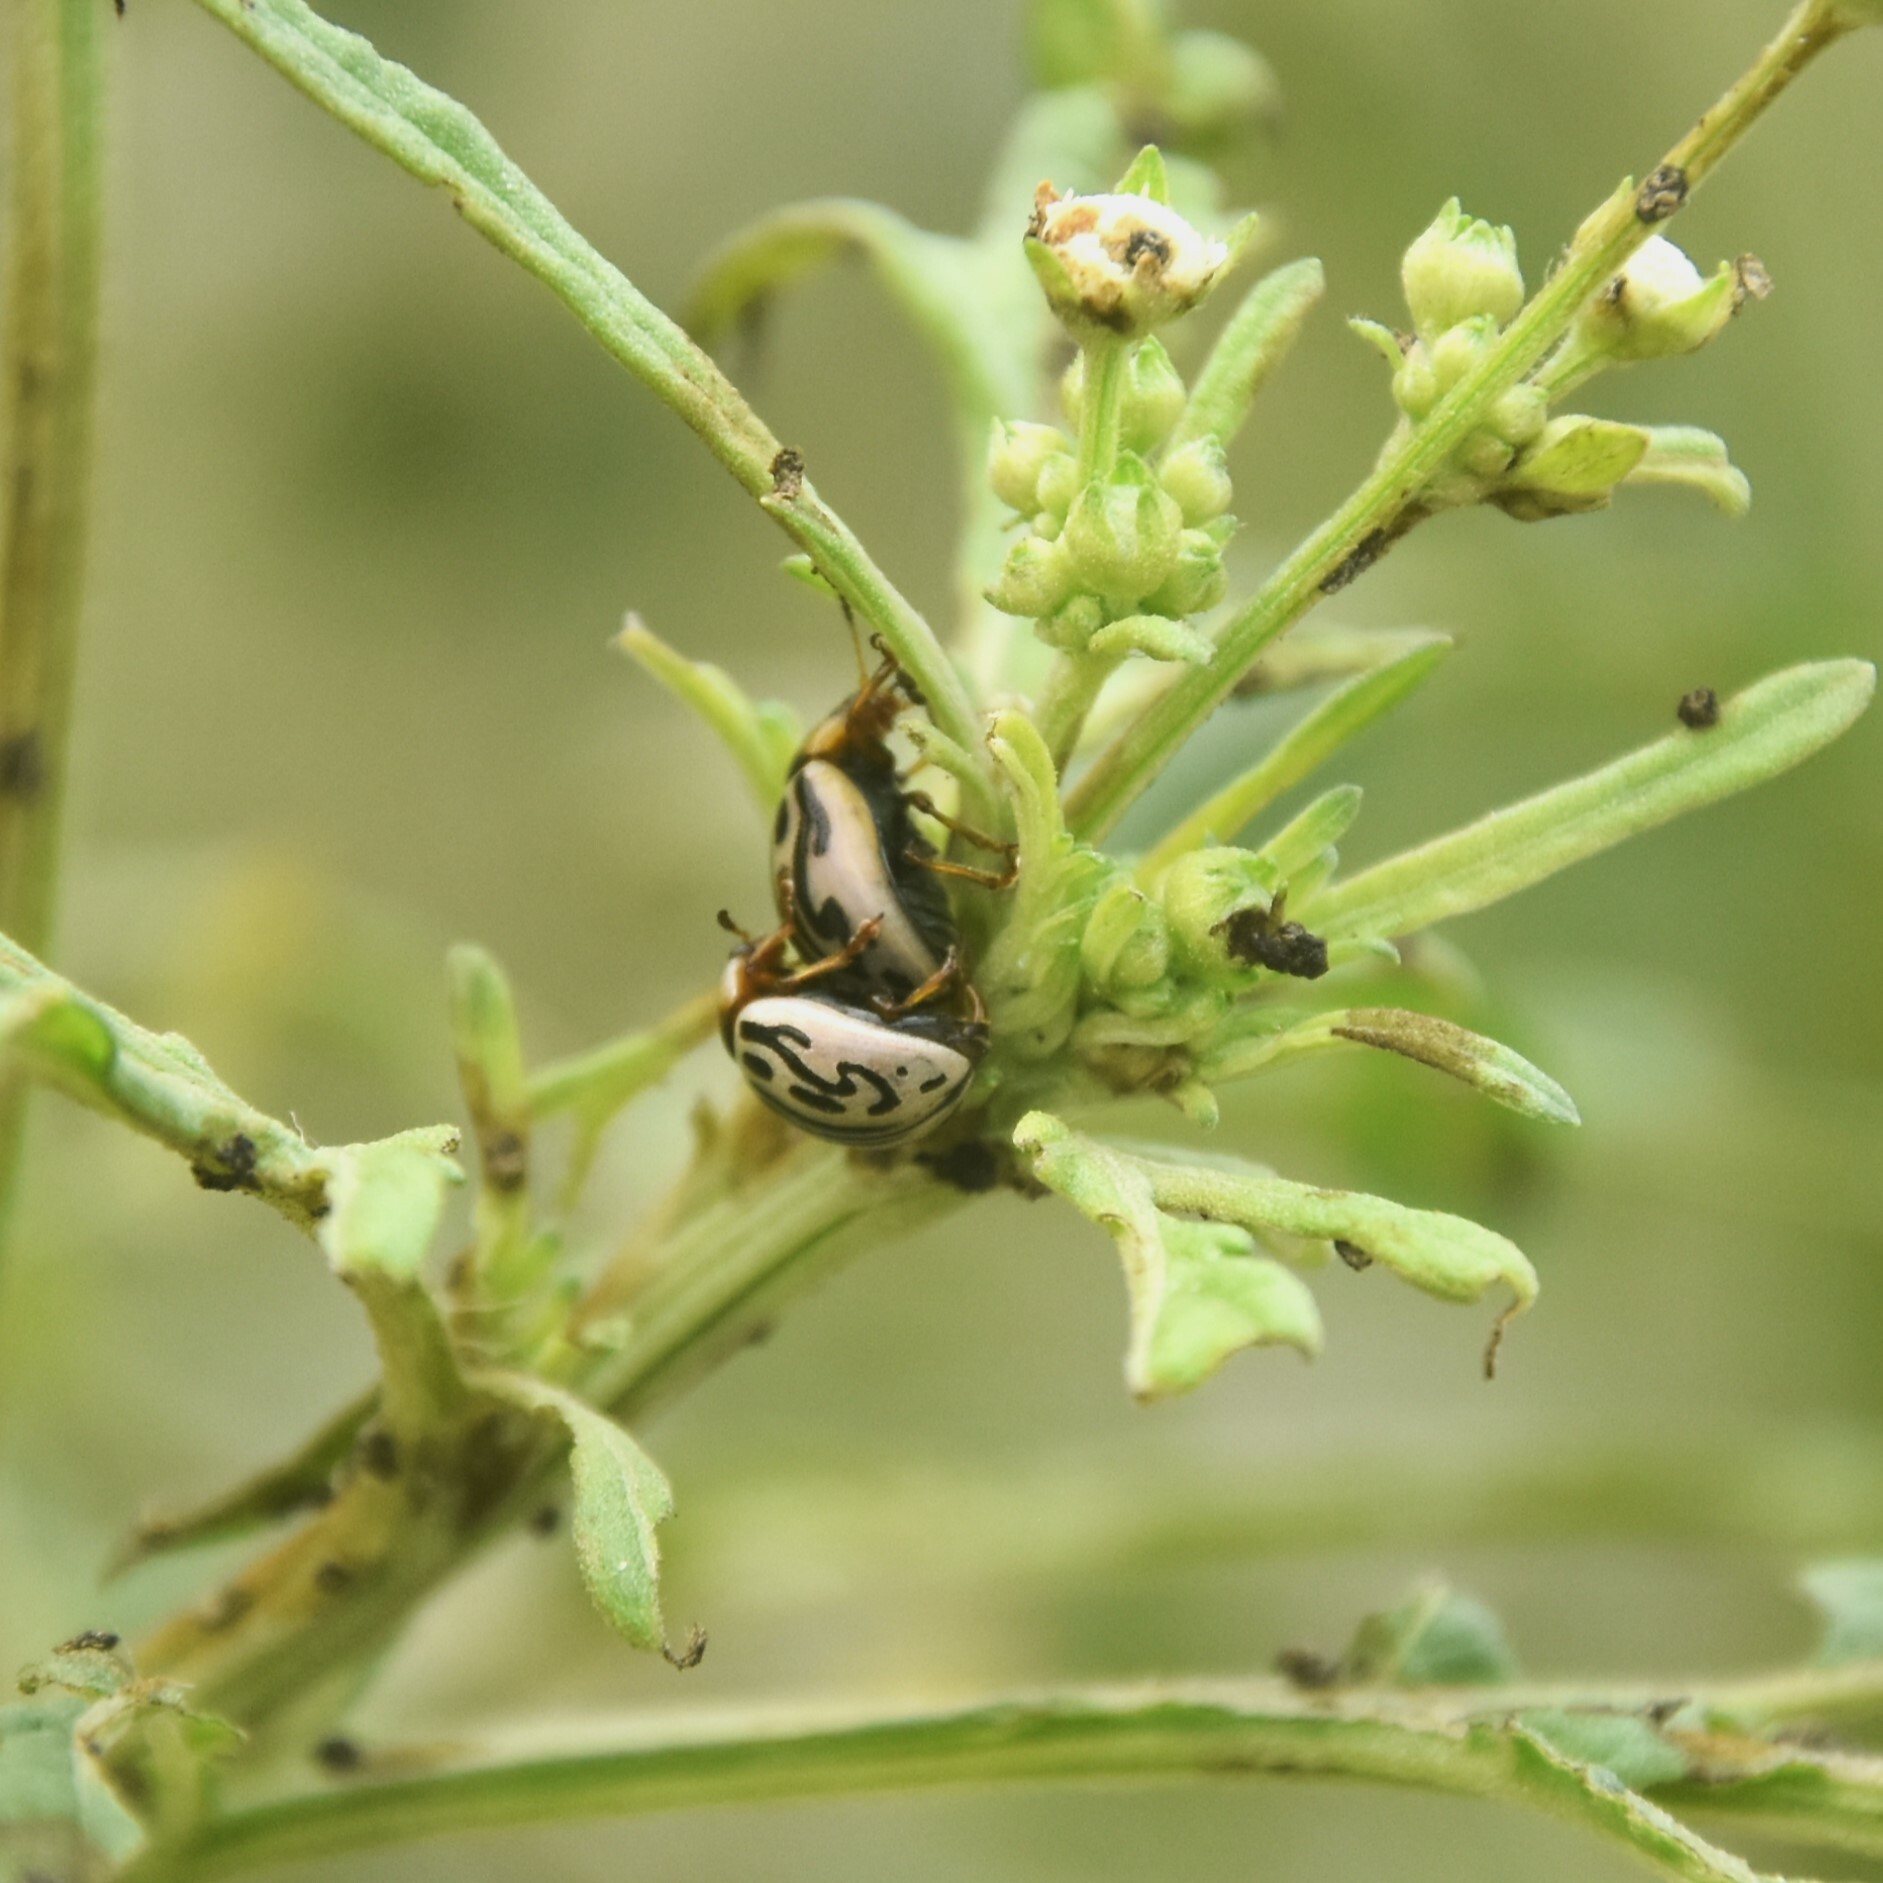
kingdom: Animalia
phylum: Arthropoda
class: Insecta
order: Coleoptera
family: Chrysomelidae
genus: Calligrapha
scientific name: Calligrapha
